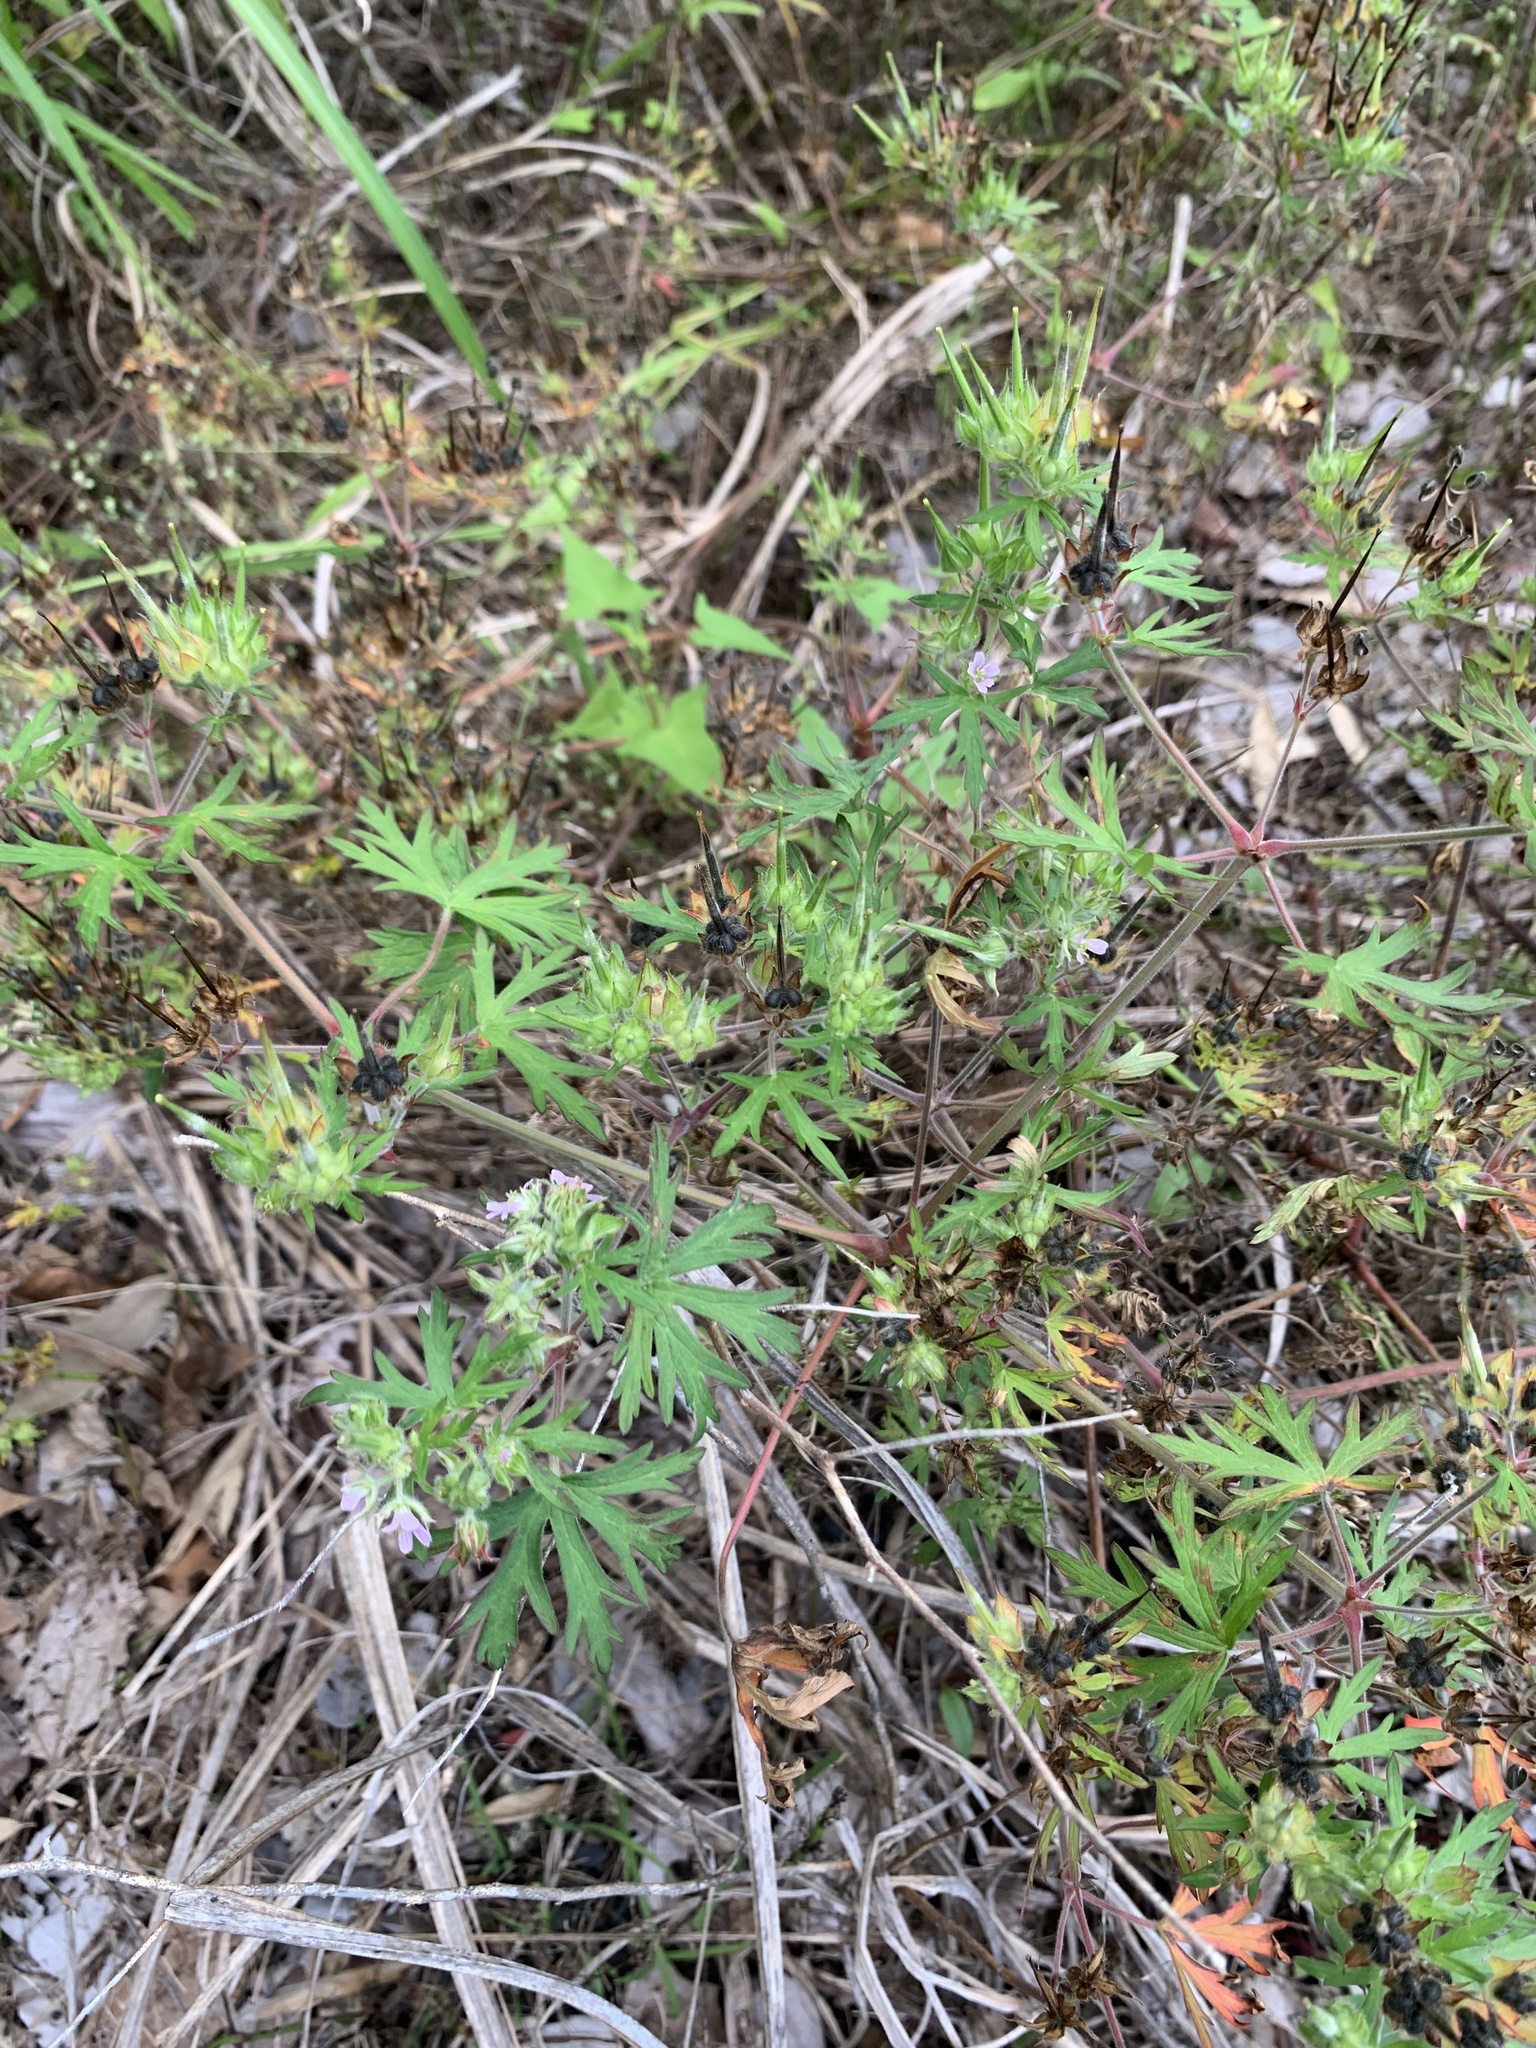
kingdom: Plantae
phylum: Tracheophyta
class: Magnoliopsida
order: Geraniales
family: Geraniaceae
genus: Geranium
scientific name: Geranium carolinianum
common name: Carolina crane's-bill
